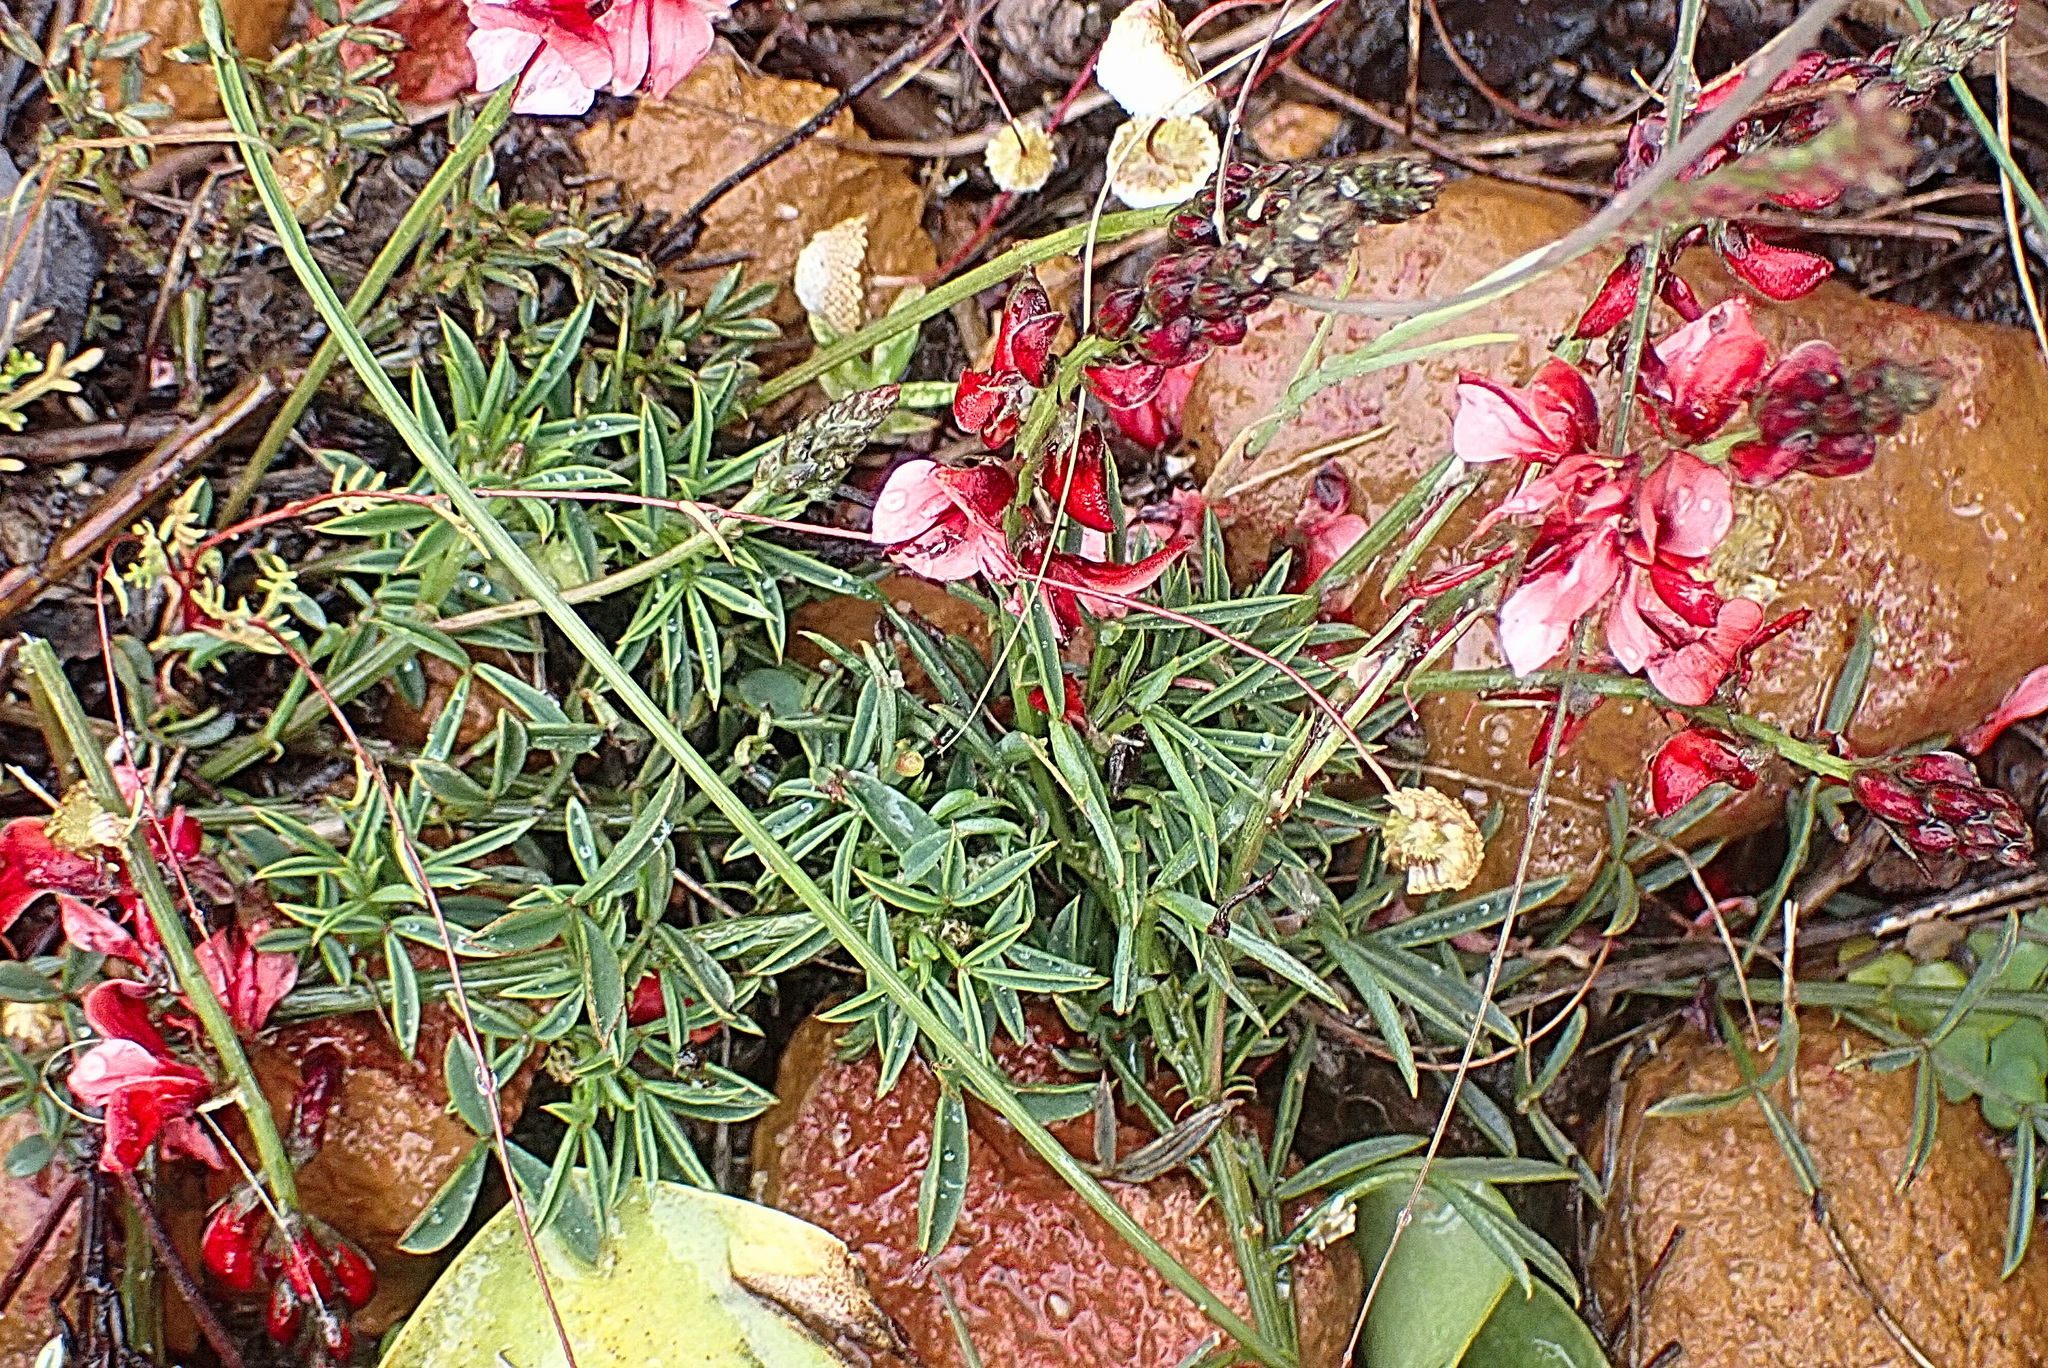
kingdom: Plantae
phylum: Tracheophyta
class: Magnoliopsida
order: Fabales
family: Fabaceae
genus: Indigofera
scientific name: Indigofera heterophylla
